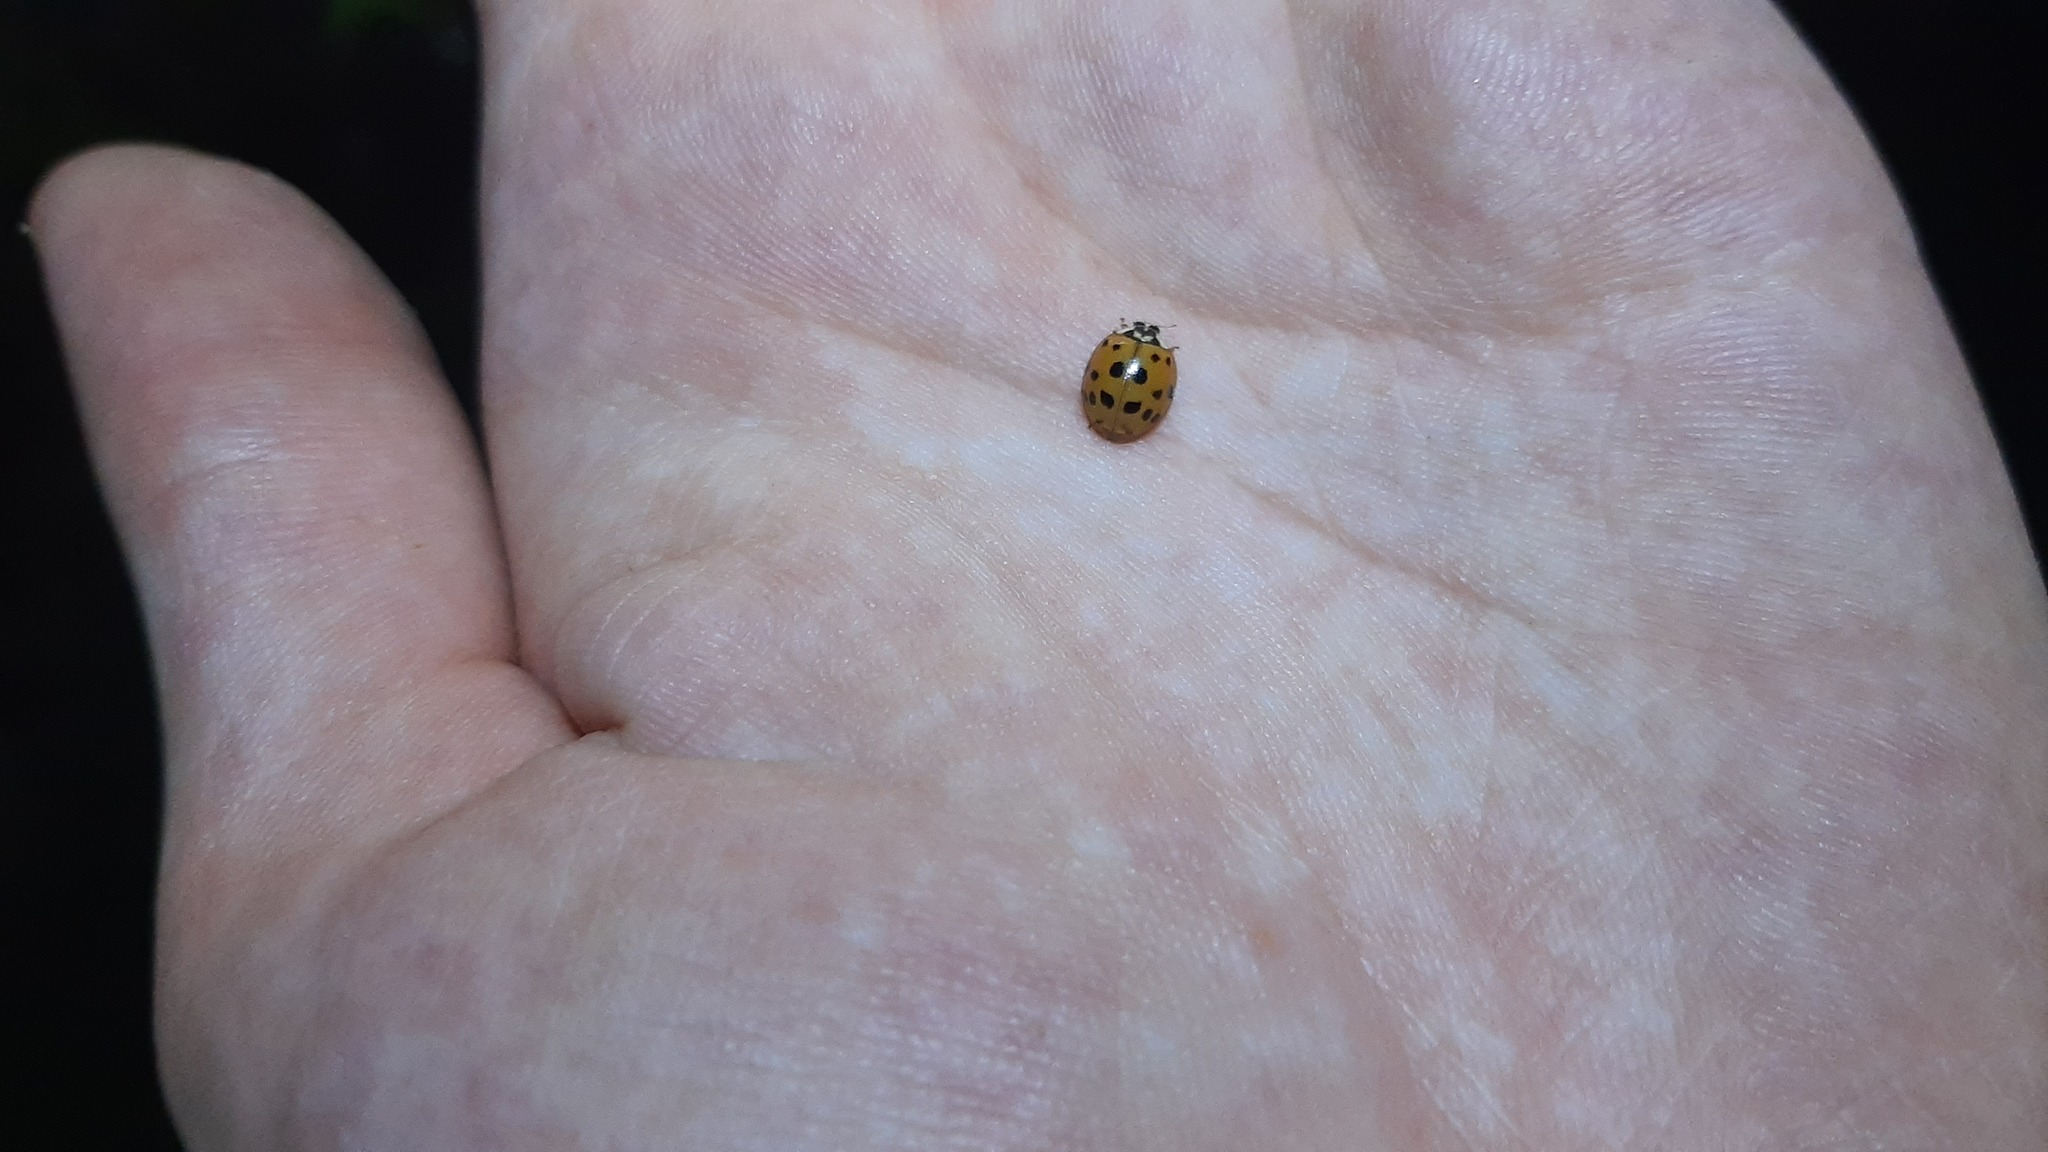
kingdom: Animalia
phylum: Arthropoda
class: Insecta
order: Coleoptera
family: Coccinellidae
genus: Harmonia
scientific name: Harmonia axyridis
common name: Harlequin ladybird
